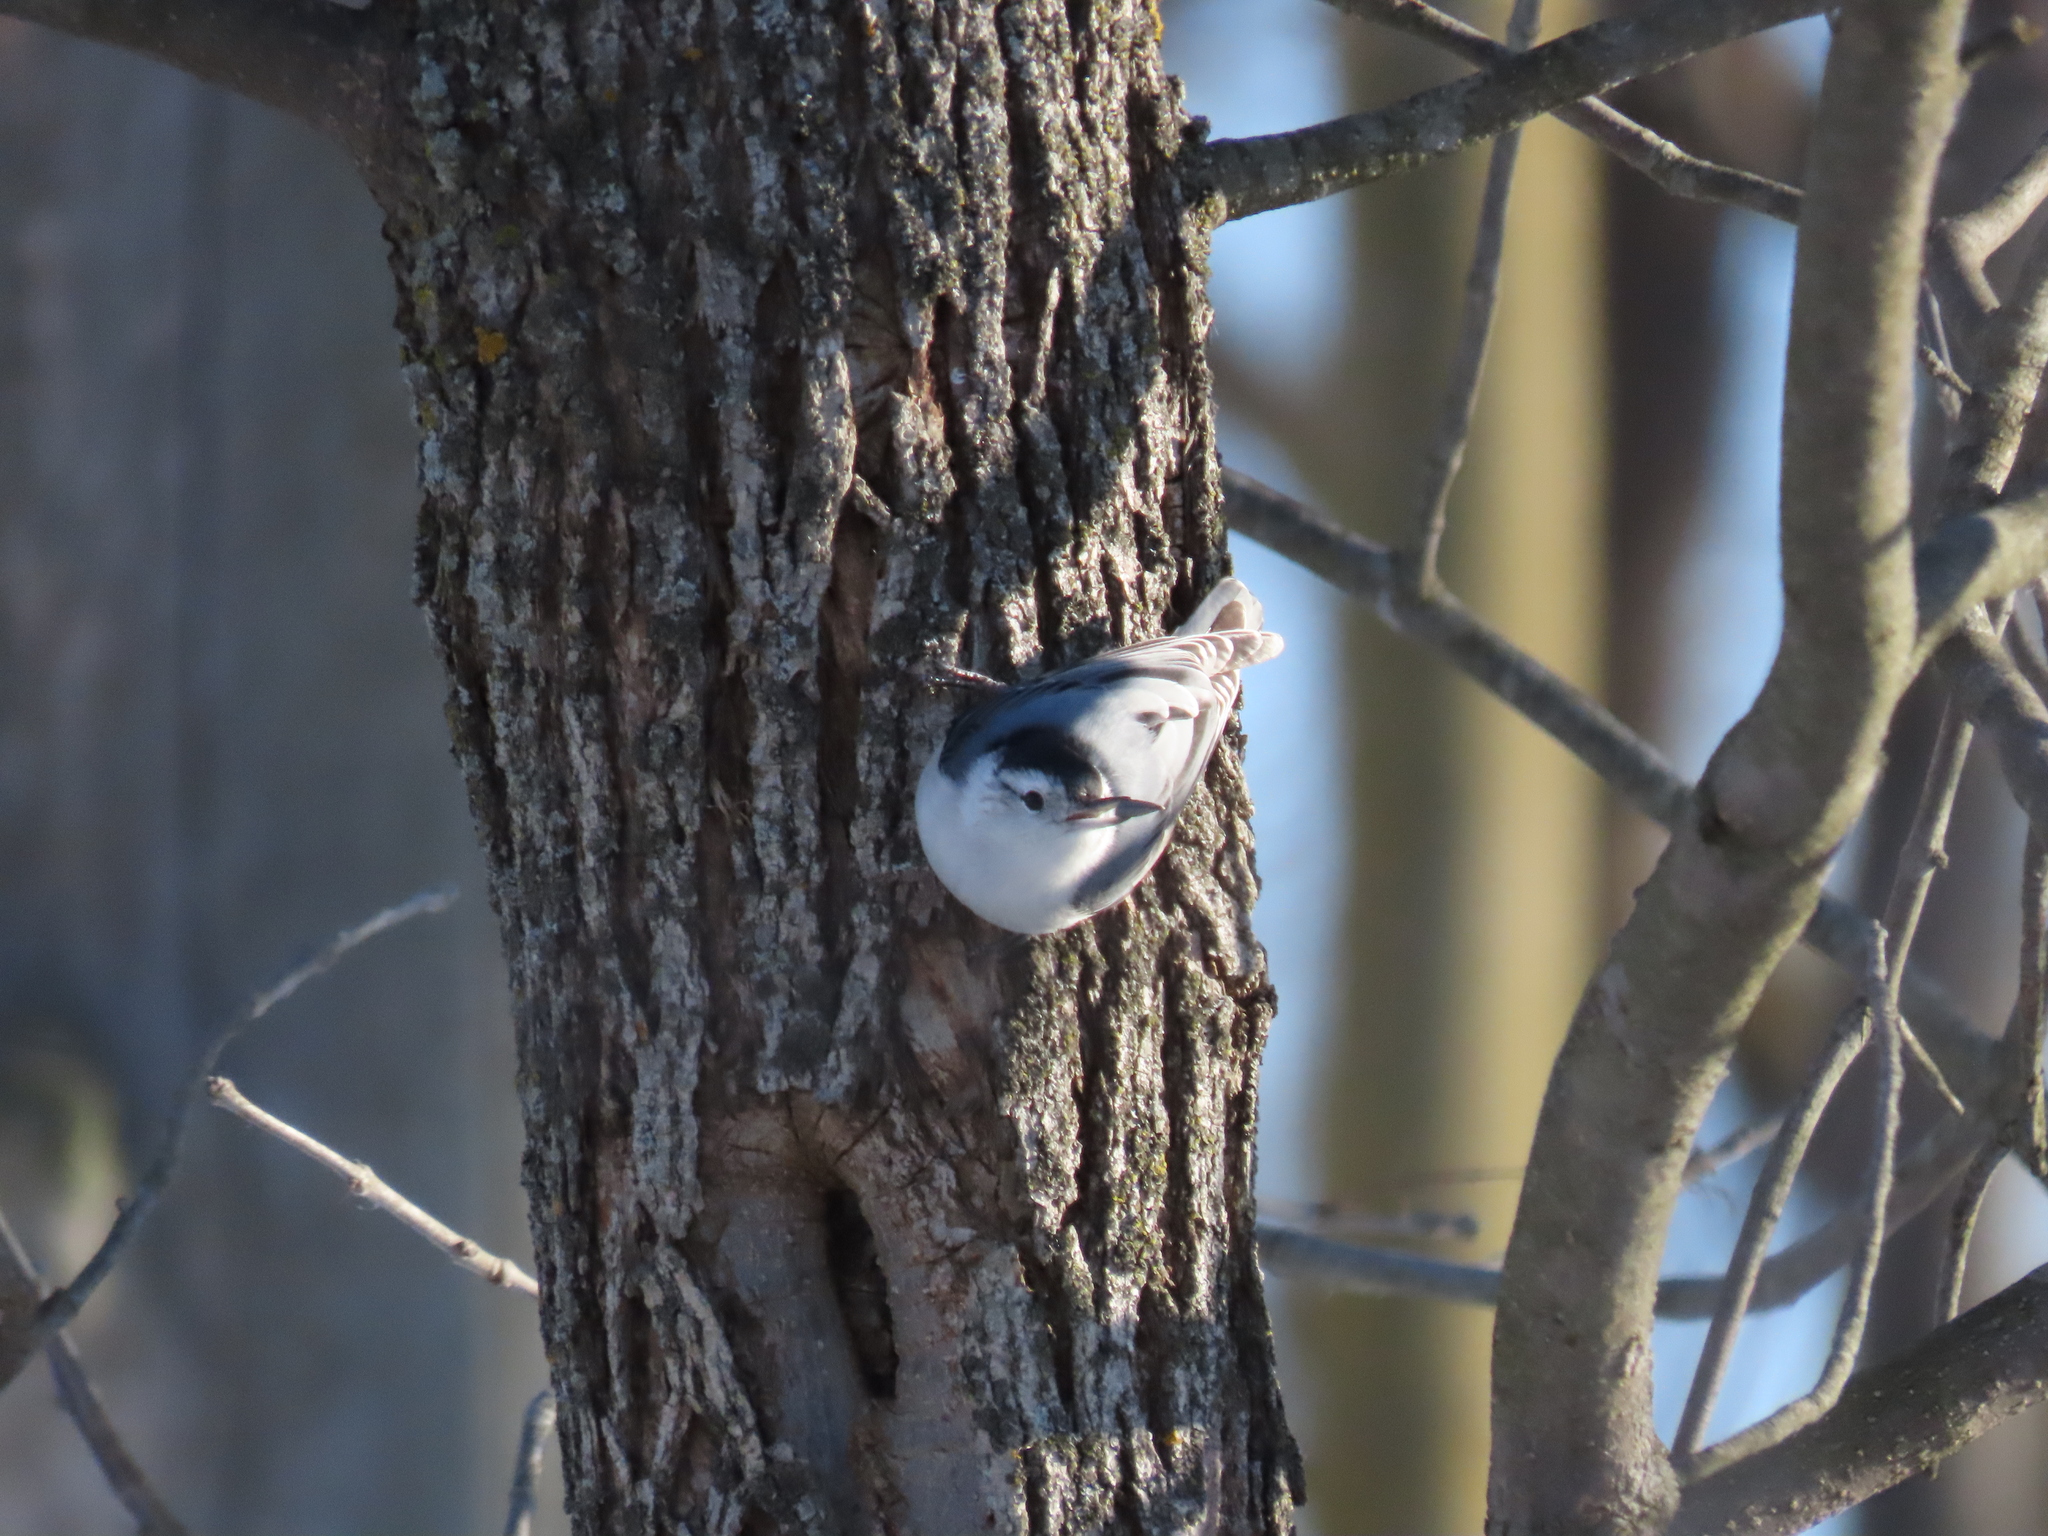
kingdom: Animalia
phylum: Chordata
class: Aves
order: Passeriformes
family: Sittidae
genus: Sitta
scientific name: Sitta carolinensis
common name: White-breasted nuthatch
